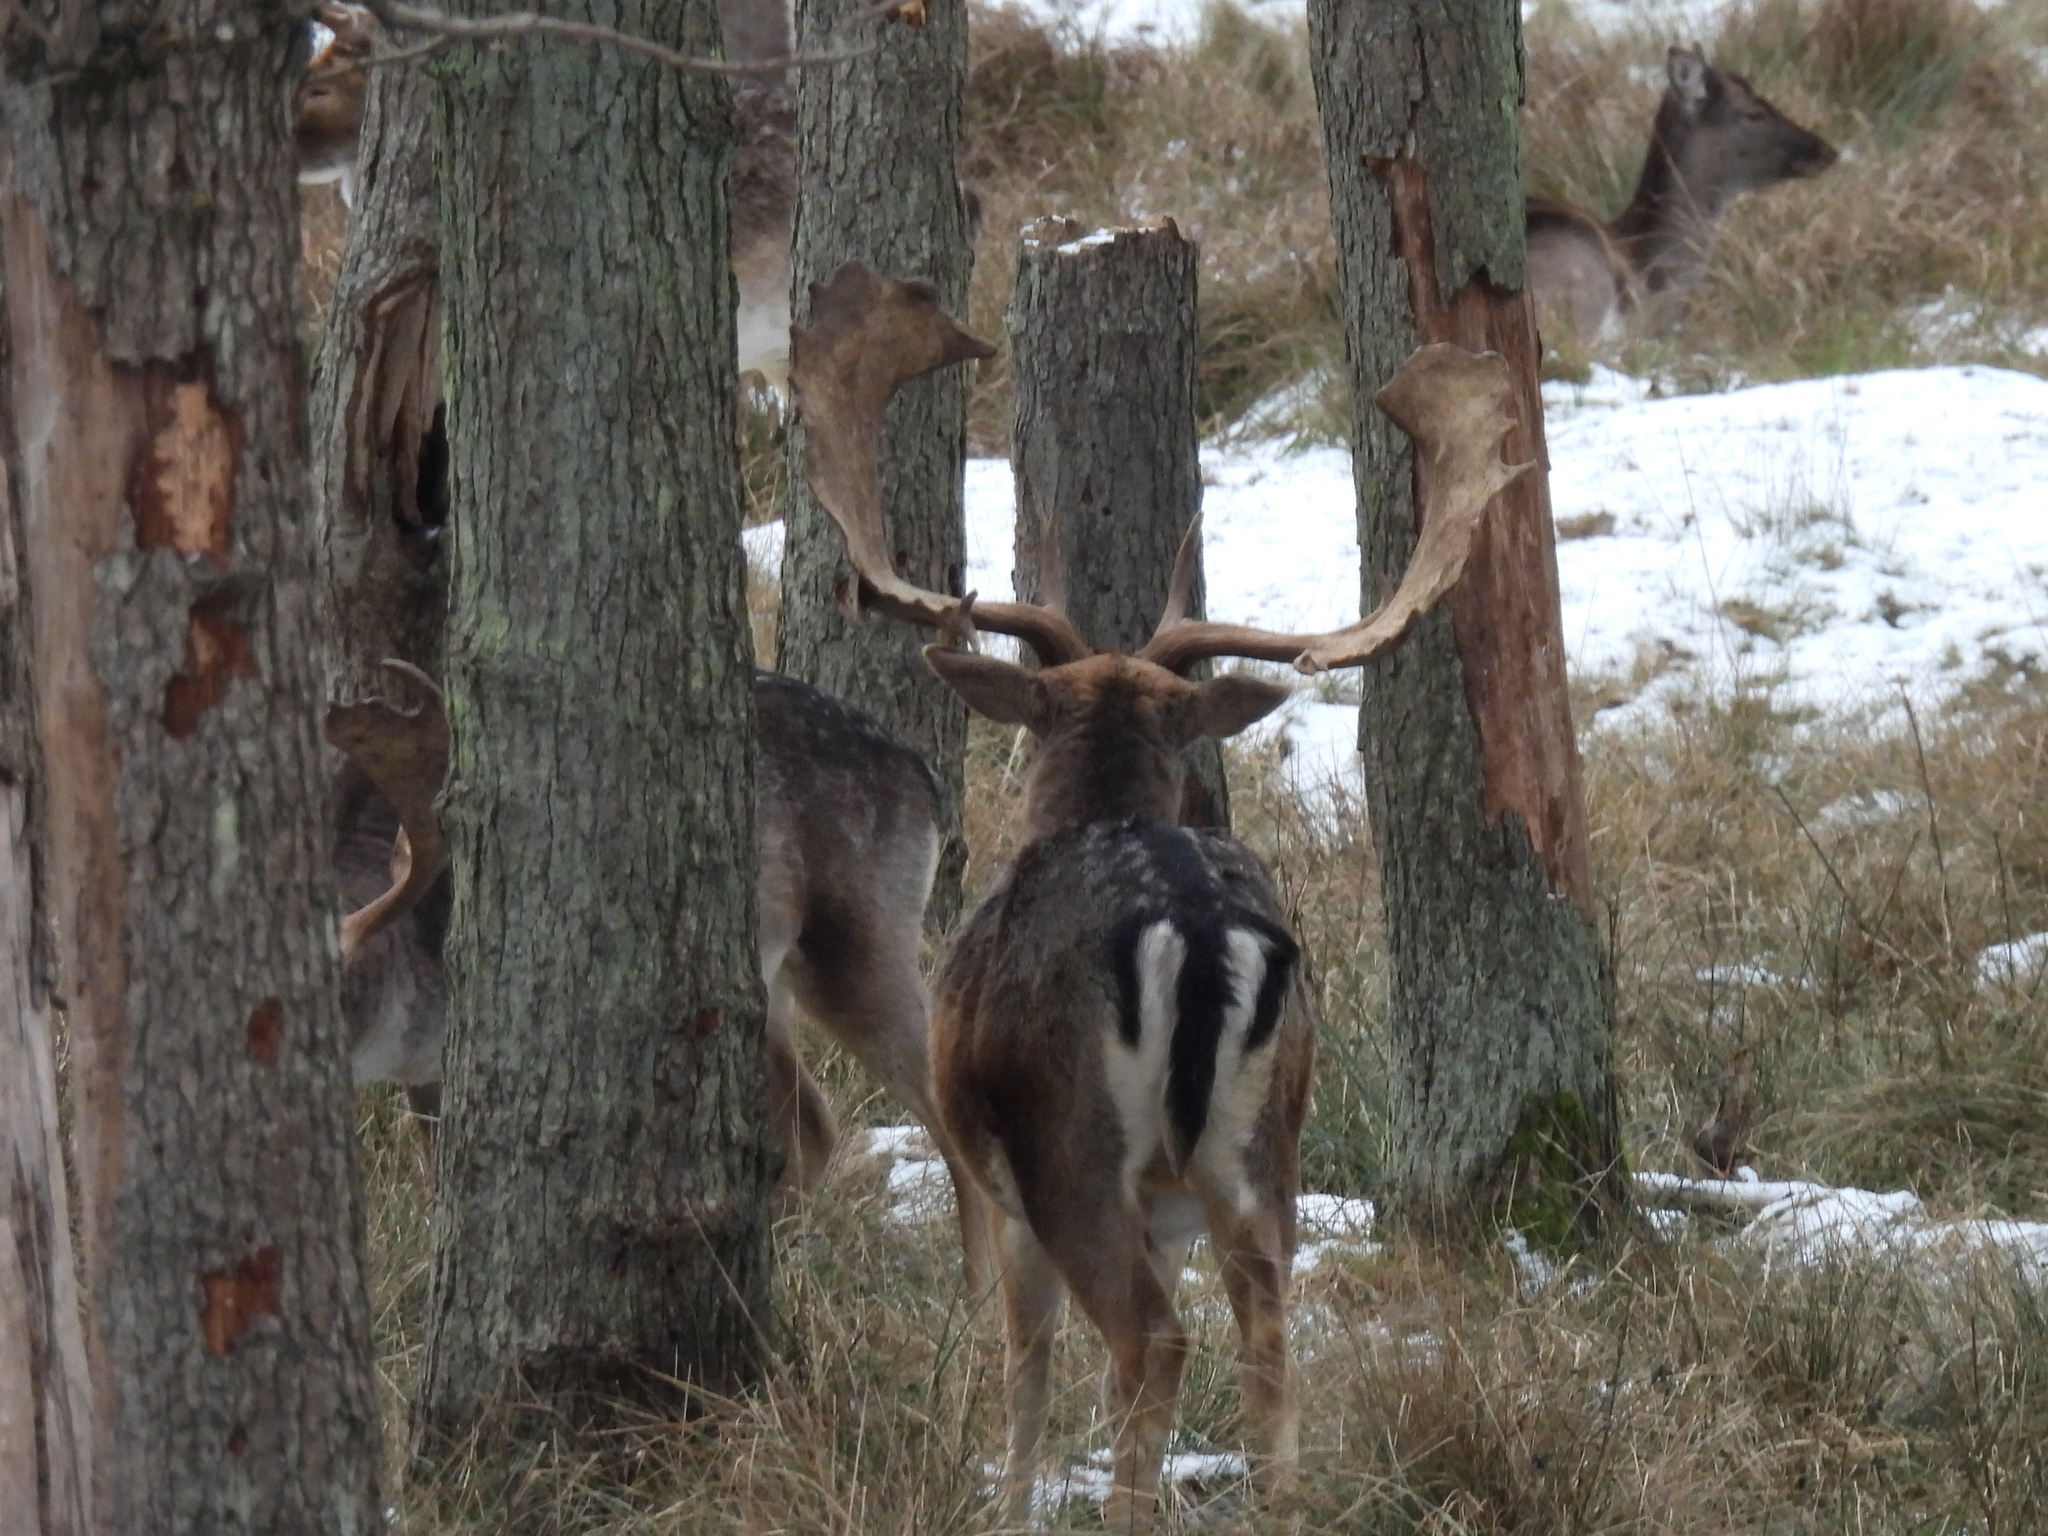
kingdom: Animalia
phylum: Chordata
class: Mammalia
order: Artiodactyla
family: Cervidae
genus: Dama
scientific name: Dama dama
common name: Fallow deer
